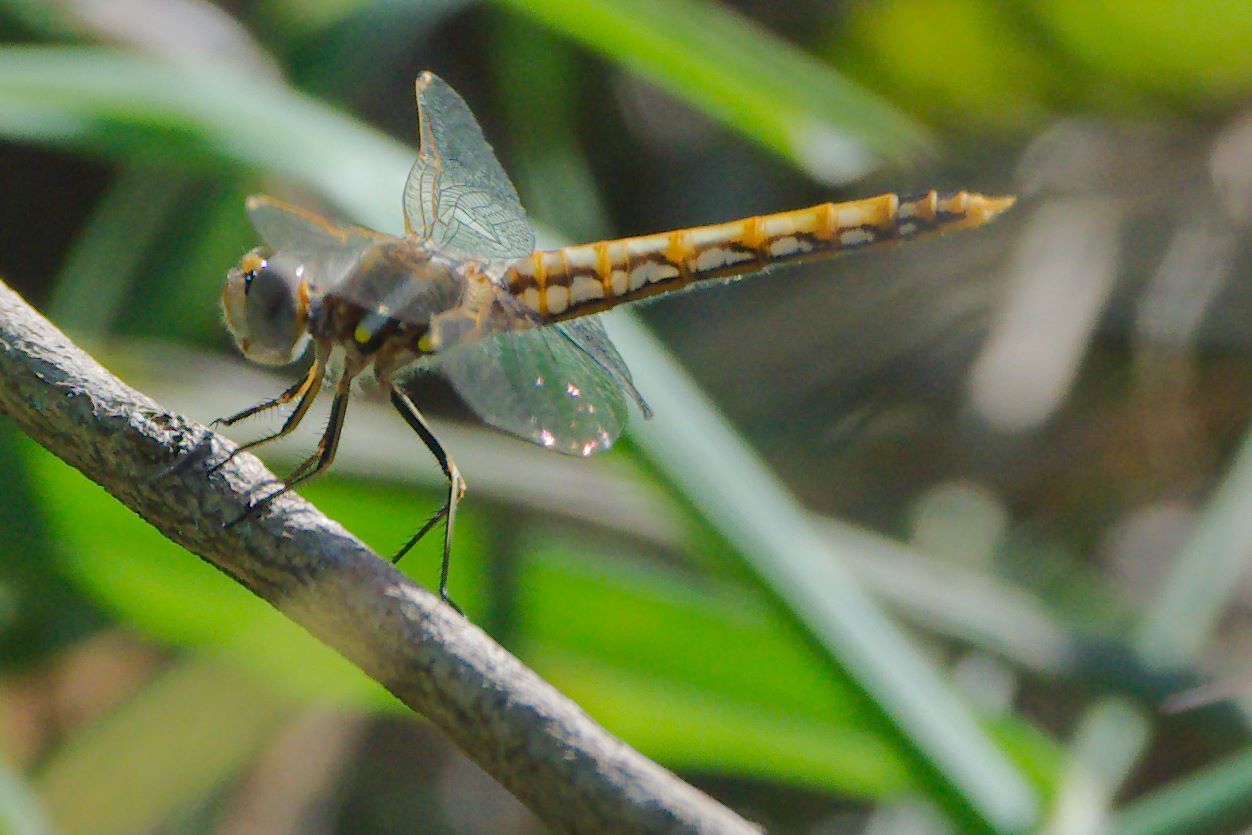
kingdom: Animalia
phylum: Arthropoda
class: Insecta
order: Odonata
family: Libellulidae
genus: Sympetrum
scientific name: Sympetrum corruptum
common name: Variegated meadowhawk
